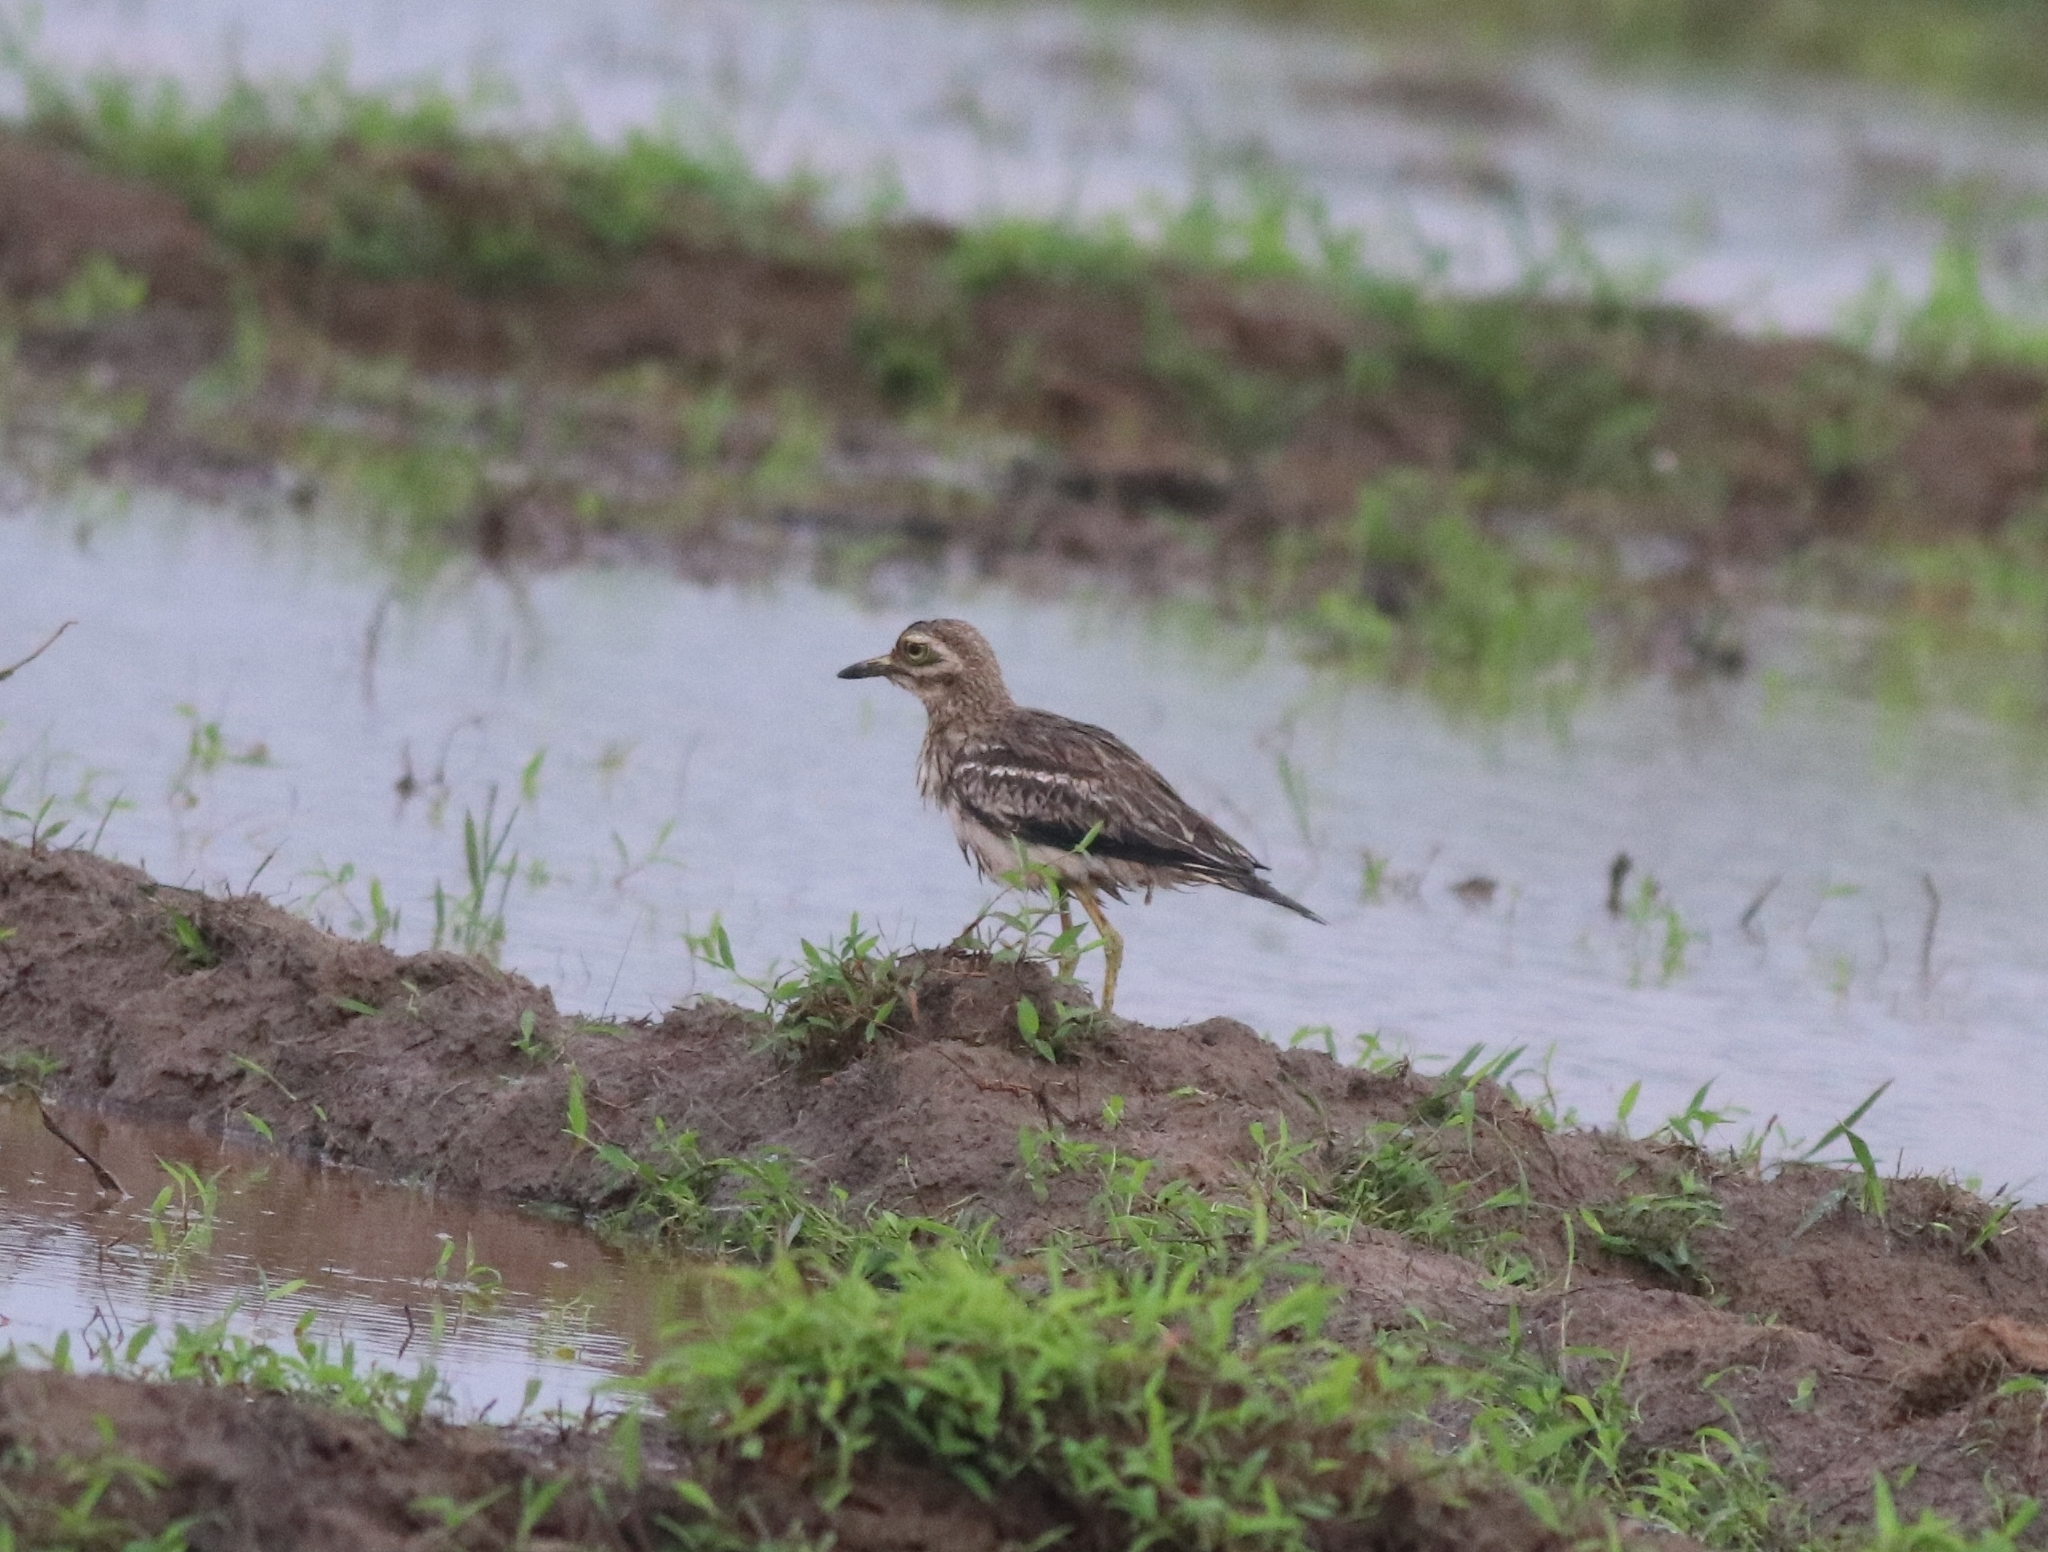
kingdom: Animalia
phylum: Chordata
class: Aves
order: Charadriiformes
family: Burhinidae
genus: Burhinus
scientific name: Burhinus indicus
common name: Indian thick-knee
